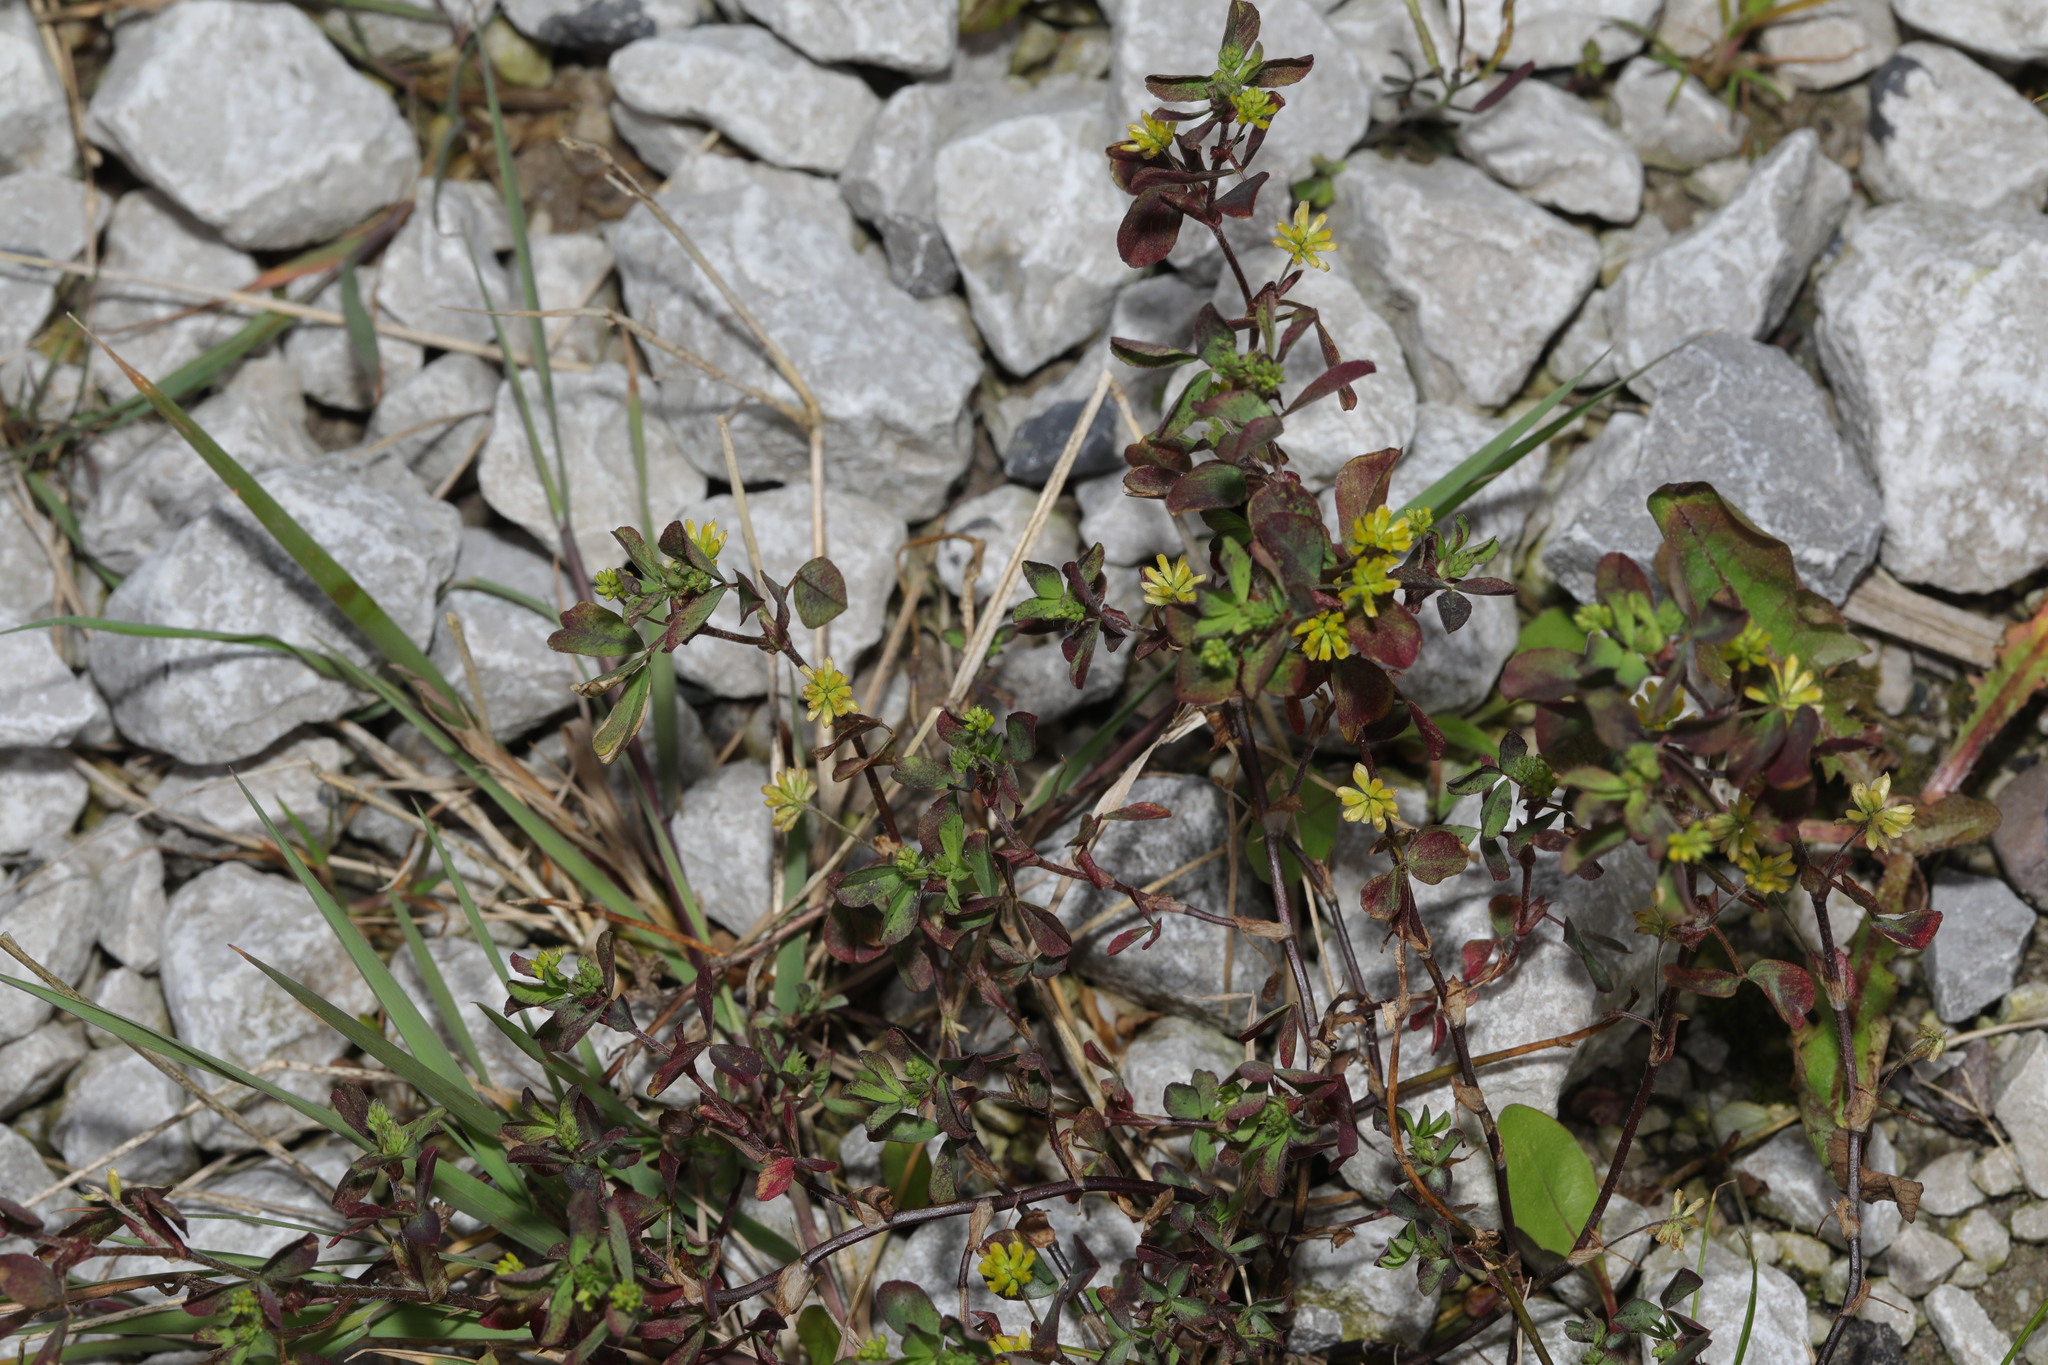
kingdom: Plantae
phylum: Tracheophyta
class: Magnoliopsida
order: Fabales
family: Fabaceae
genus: Trifolium
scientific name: Trifolium dubium
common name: Suckling clover
